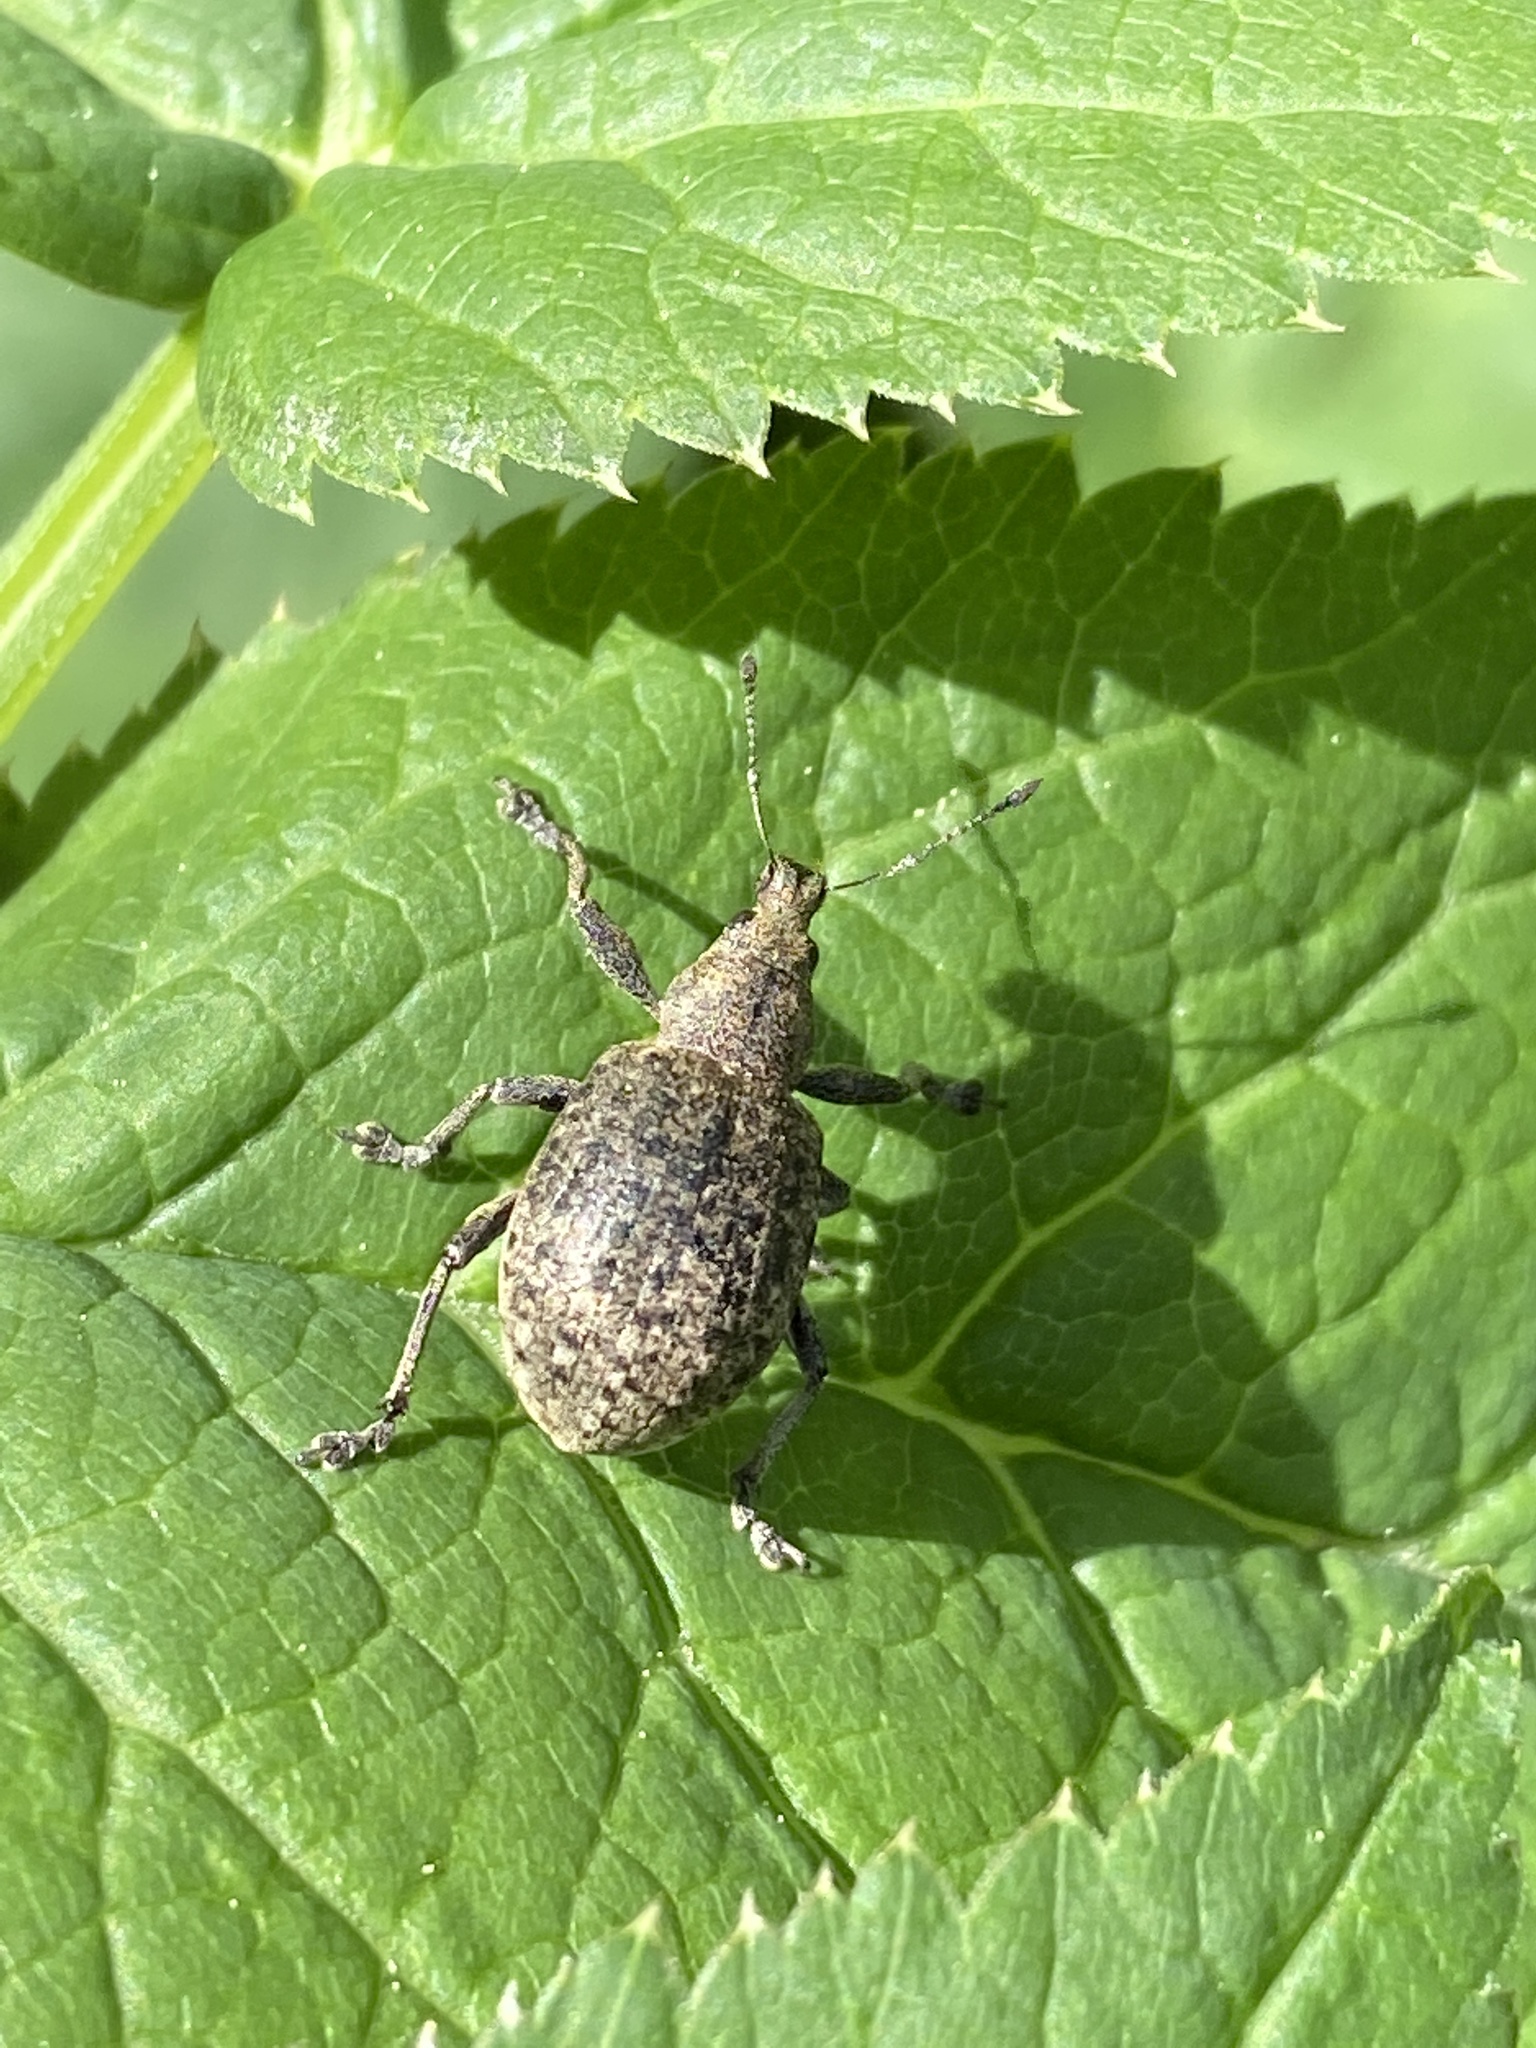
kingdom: Animalia
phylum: Arthropoda
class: Insecta
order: Coleoptera
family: Curculionidae
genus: Liophloeus
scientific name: Liophloeus tessulatus
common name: Weevil
